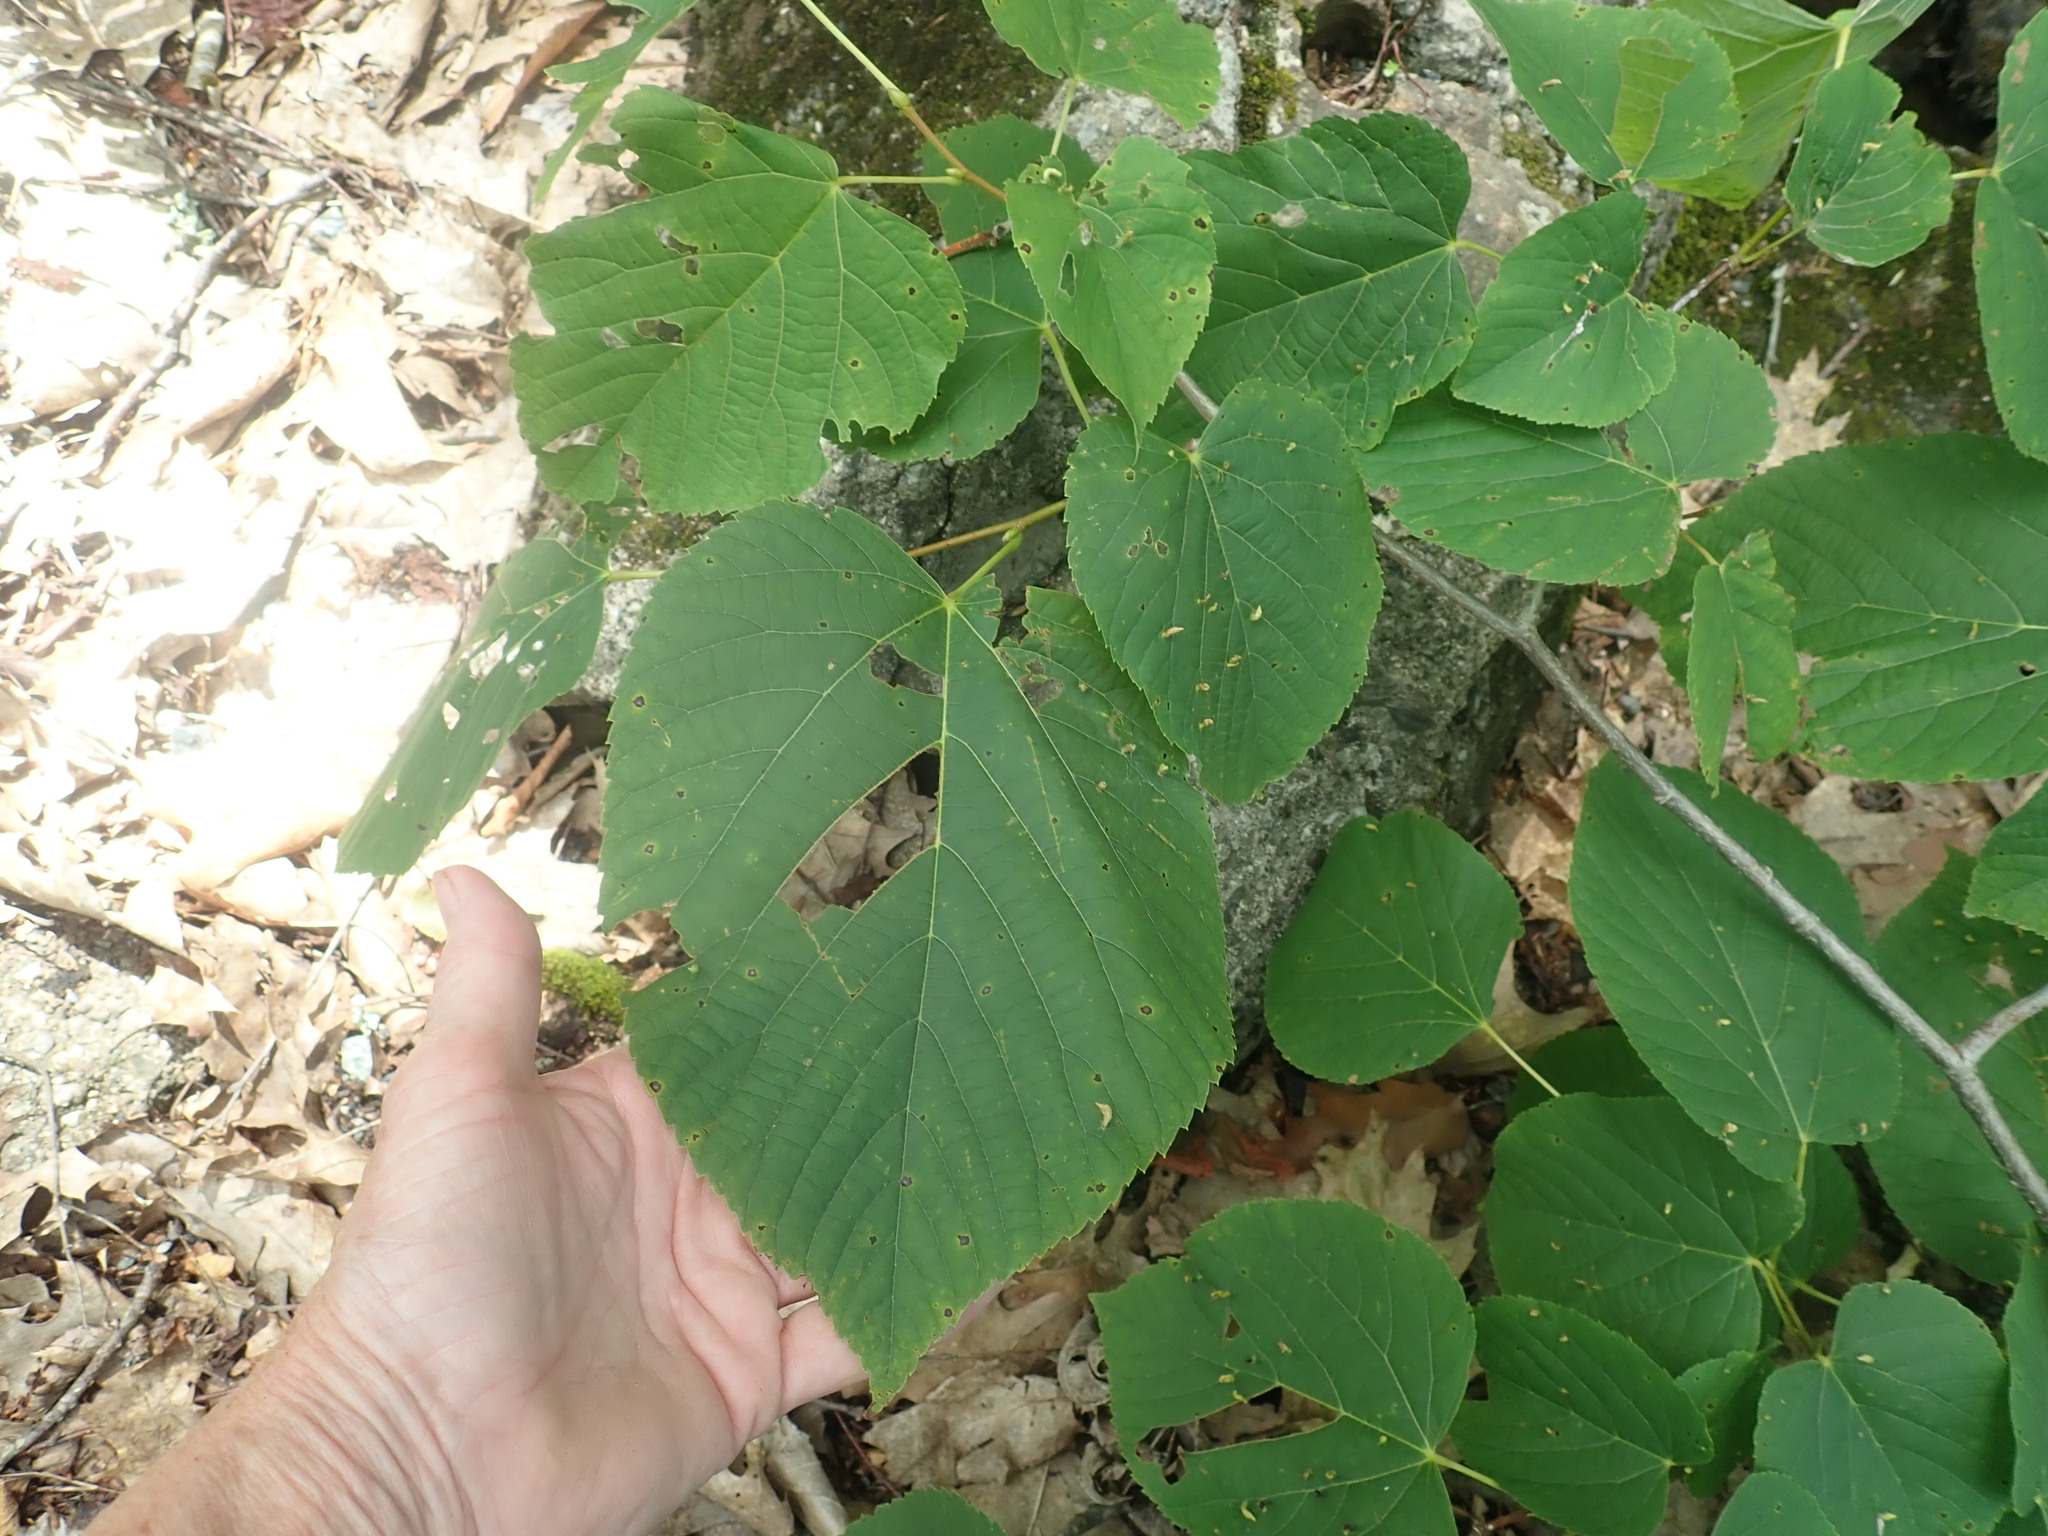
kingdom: Plantae
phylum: Tracheophyta
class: Magnoliopsida
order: Malvales
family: Malvaceae
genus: Tilia
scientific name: Tilia americana
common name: Basswood
